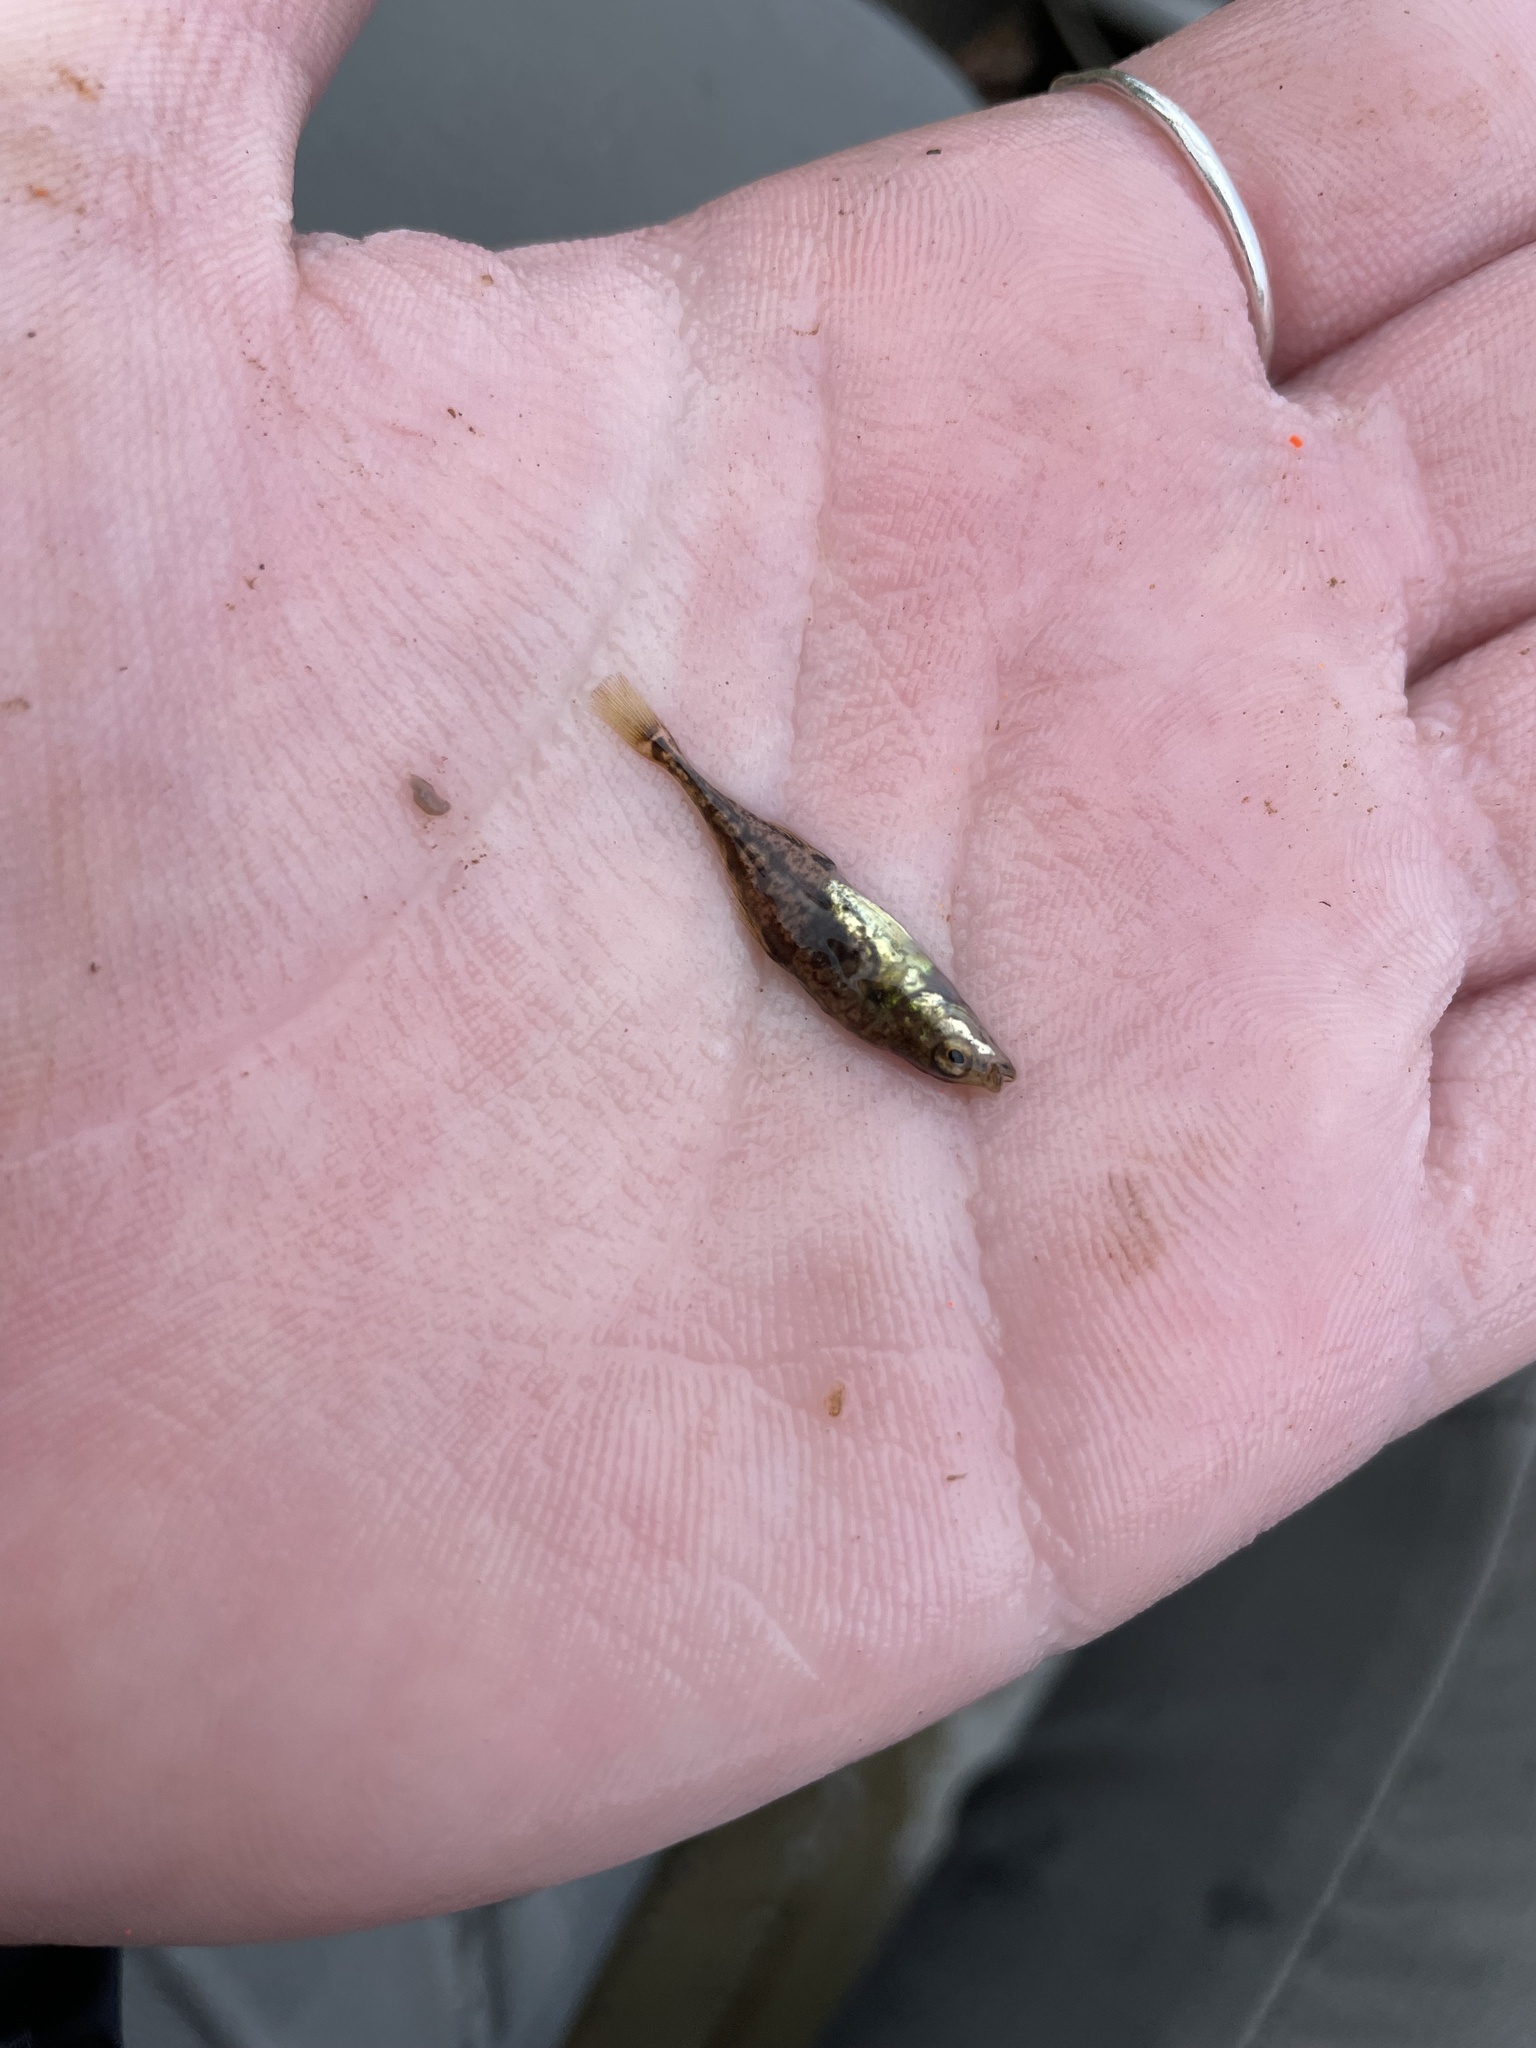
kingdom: Animalia
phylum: Chordata
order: Gasterosteiformes
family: Gasterosteidae
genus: Apeltes
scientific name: Apeltes quadracus
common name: Fourspine stickleback
